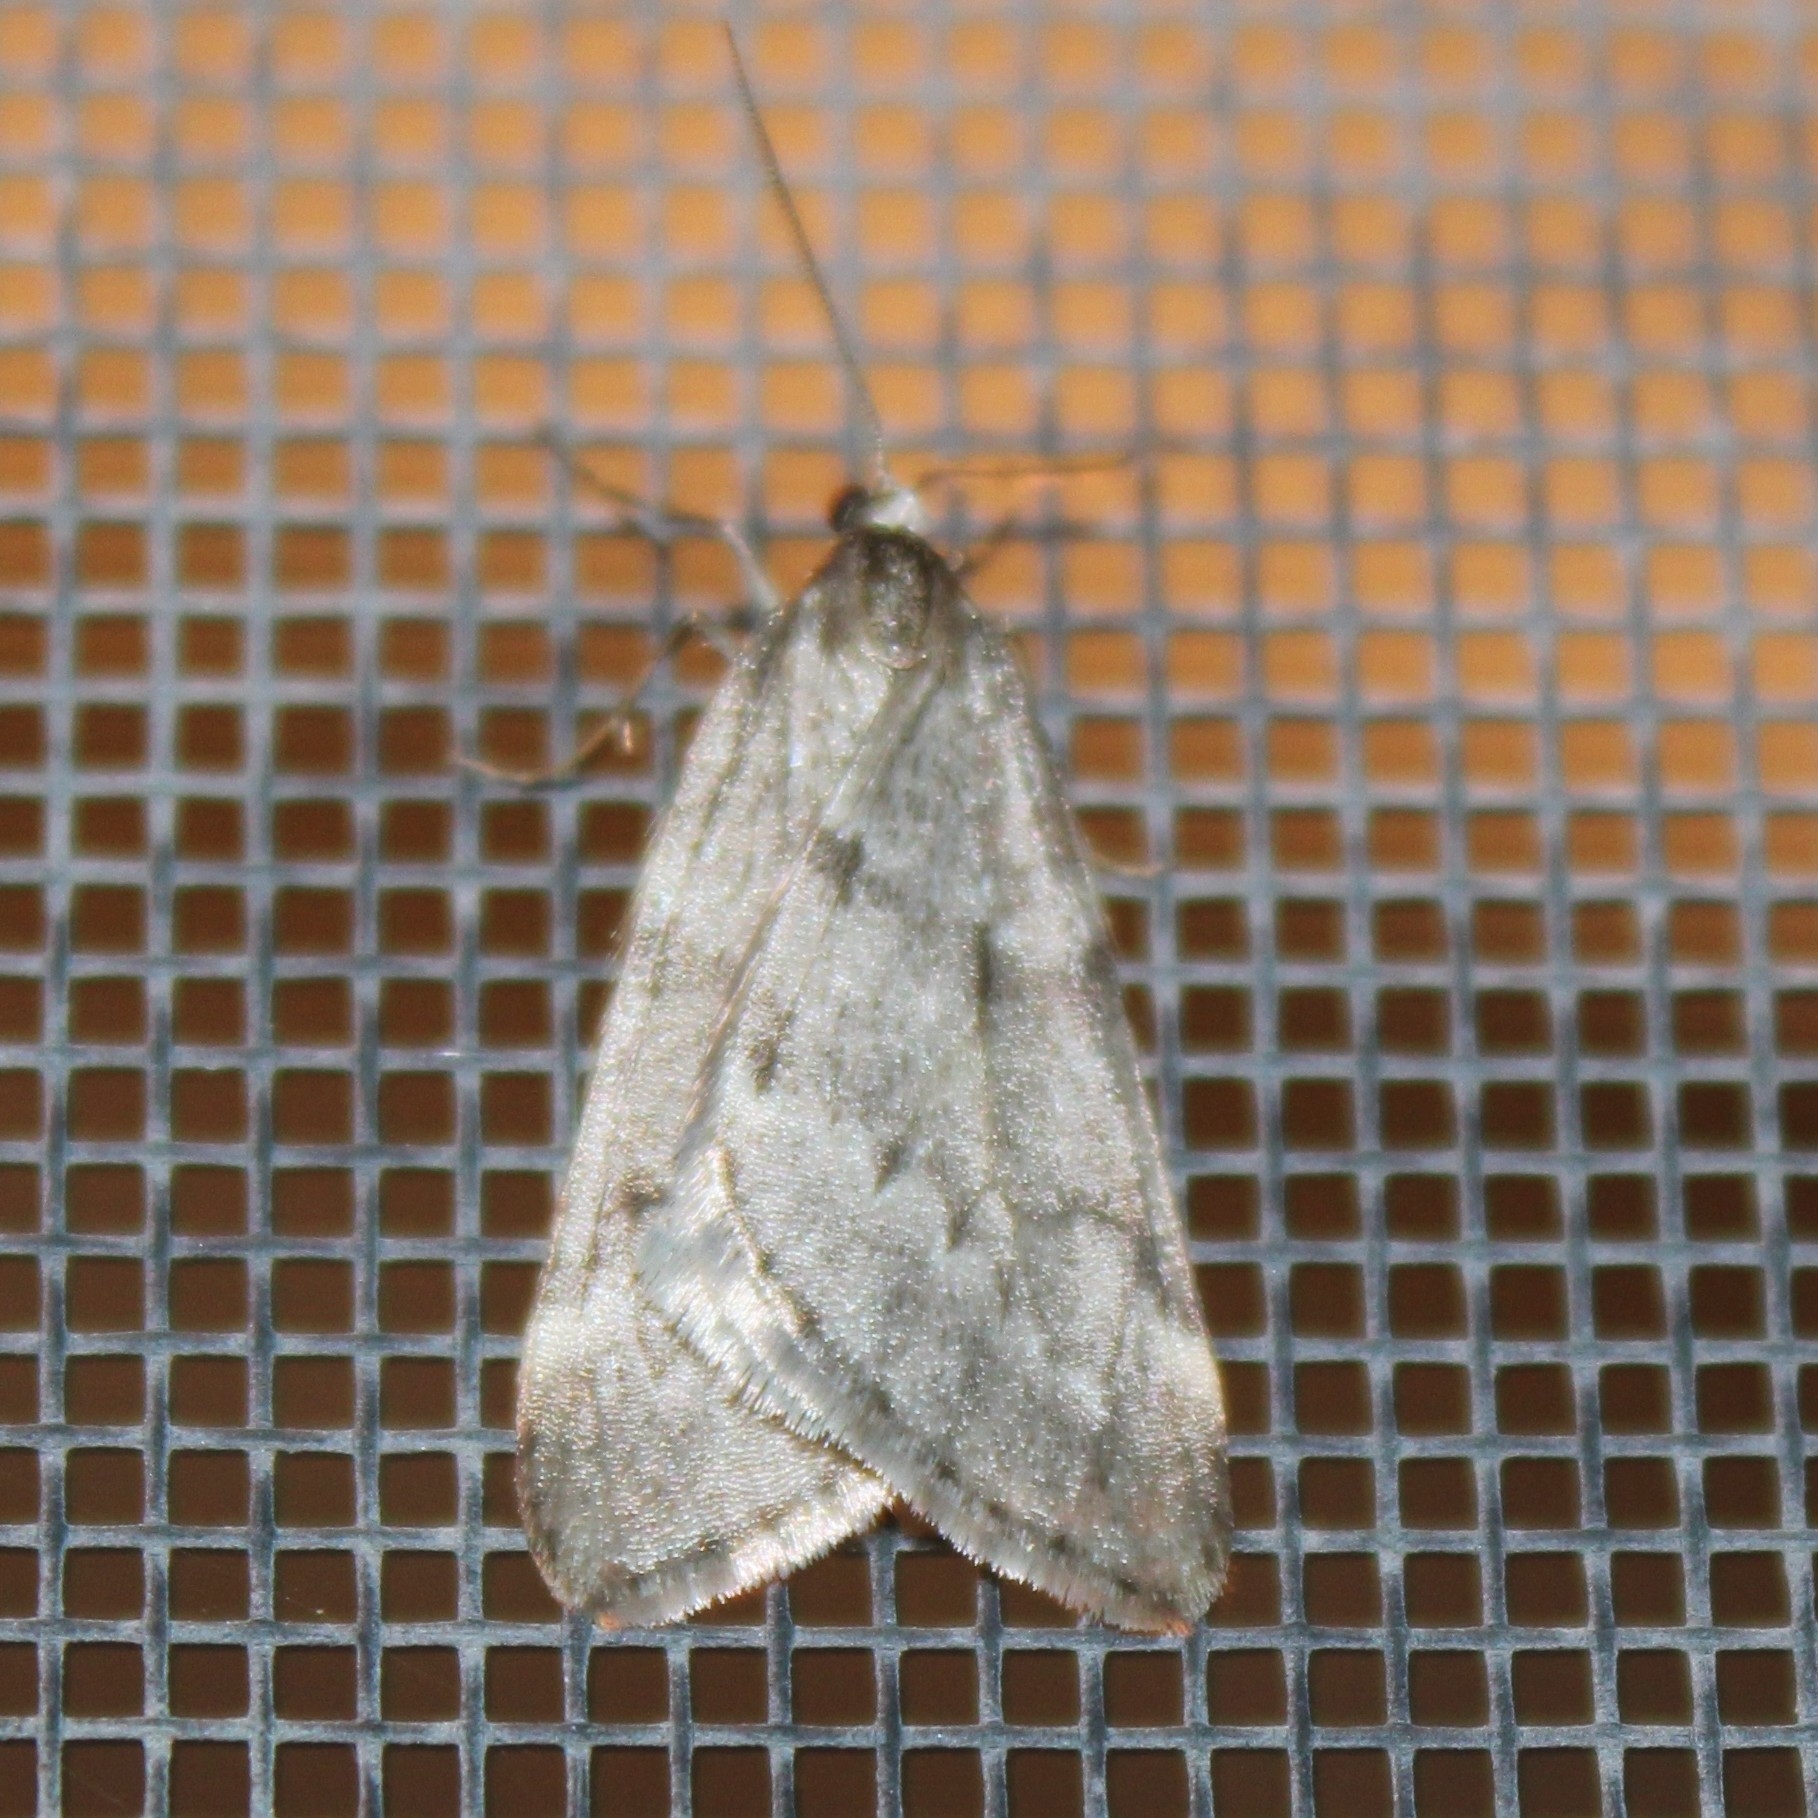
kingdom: Animalia
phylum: Arthropoda
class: Insecta
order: Lepidoptera
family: Geometridae
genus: Alsophila
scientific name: Alsophila pometaria
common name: Fall cankerworm
